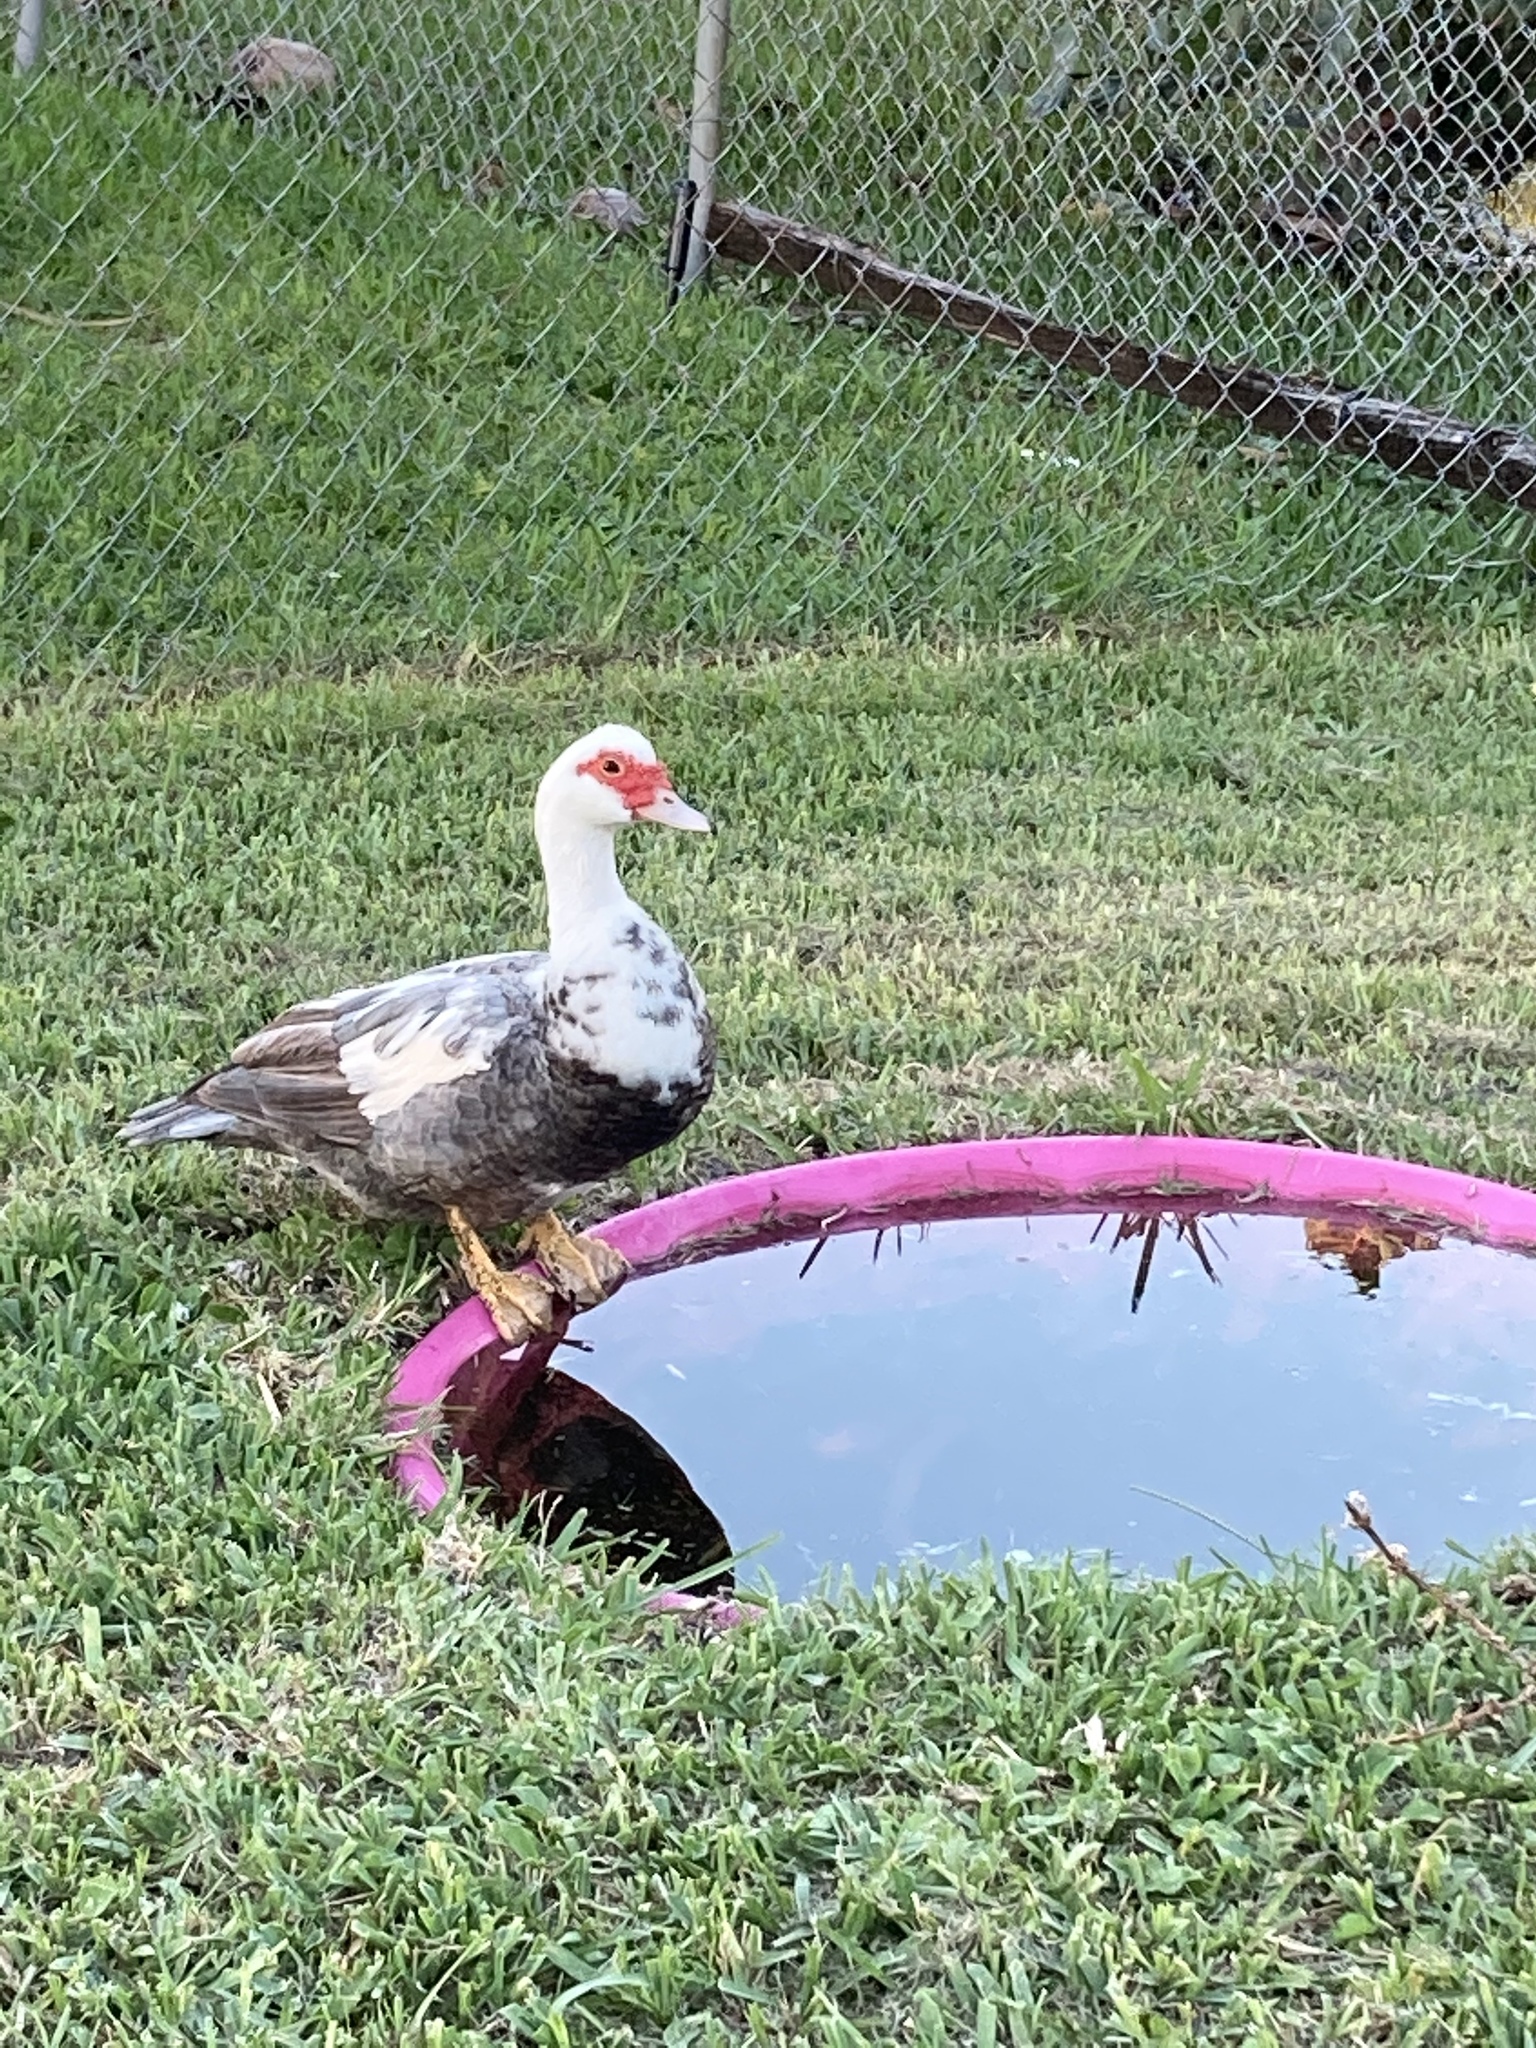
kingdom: Animalia
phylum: Chordata
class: Aves
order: Anseriformes
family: Anatidae
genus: Cairina
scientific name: Cairina moschata
